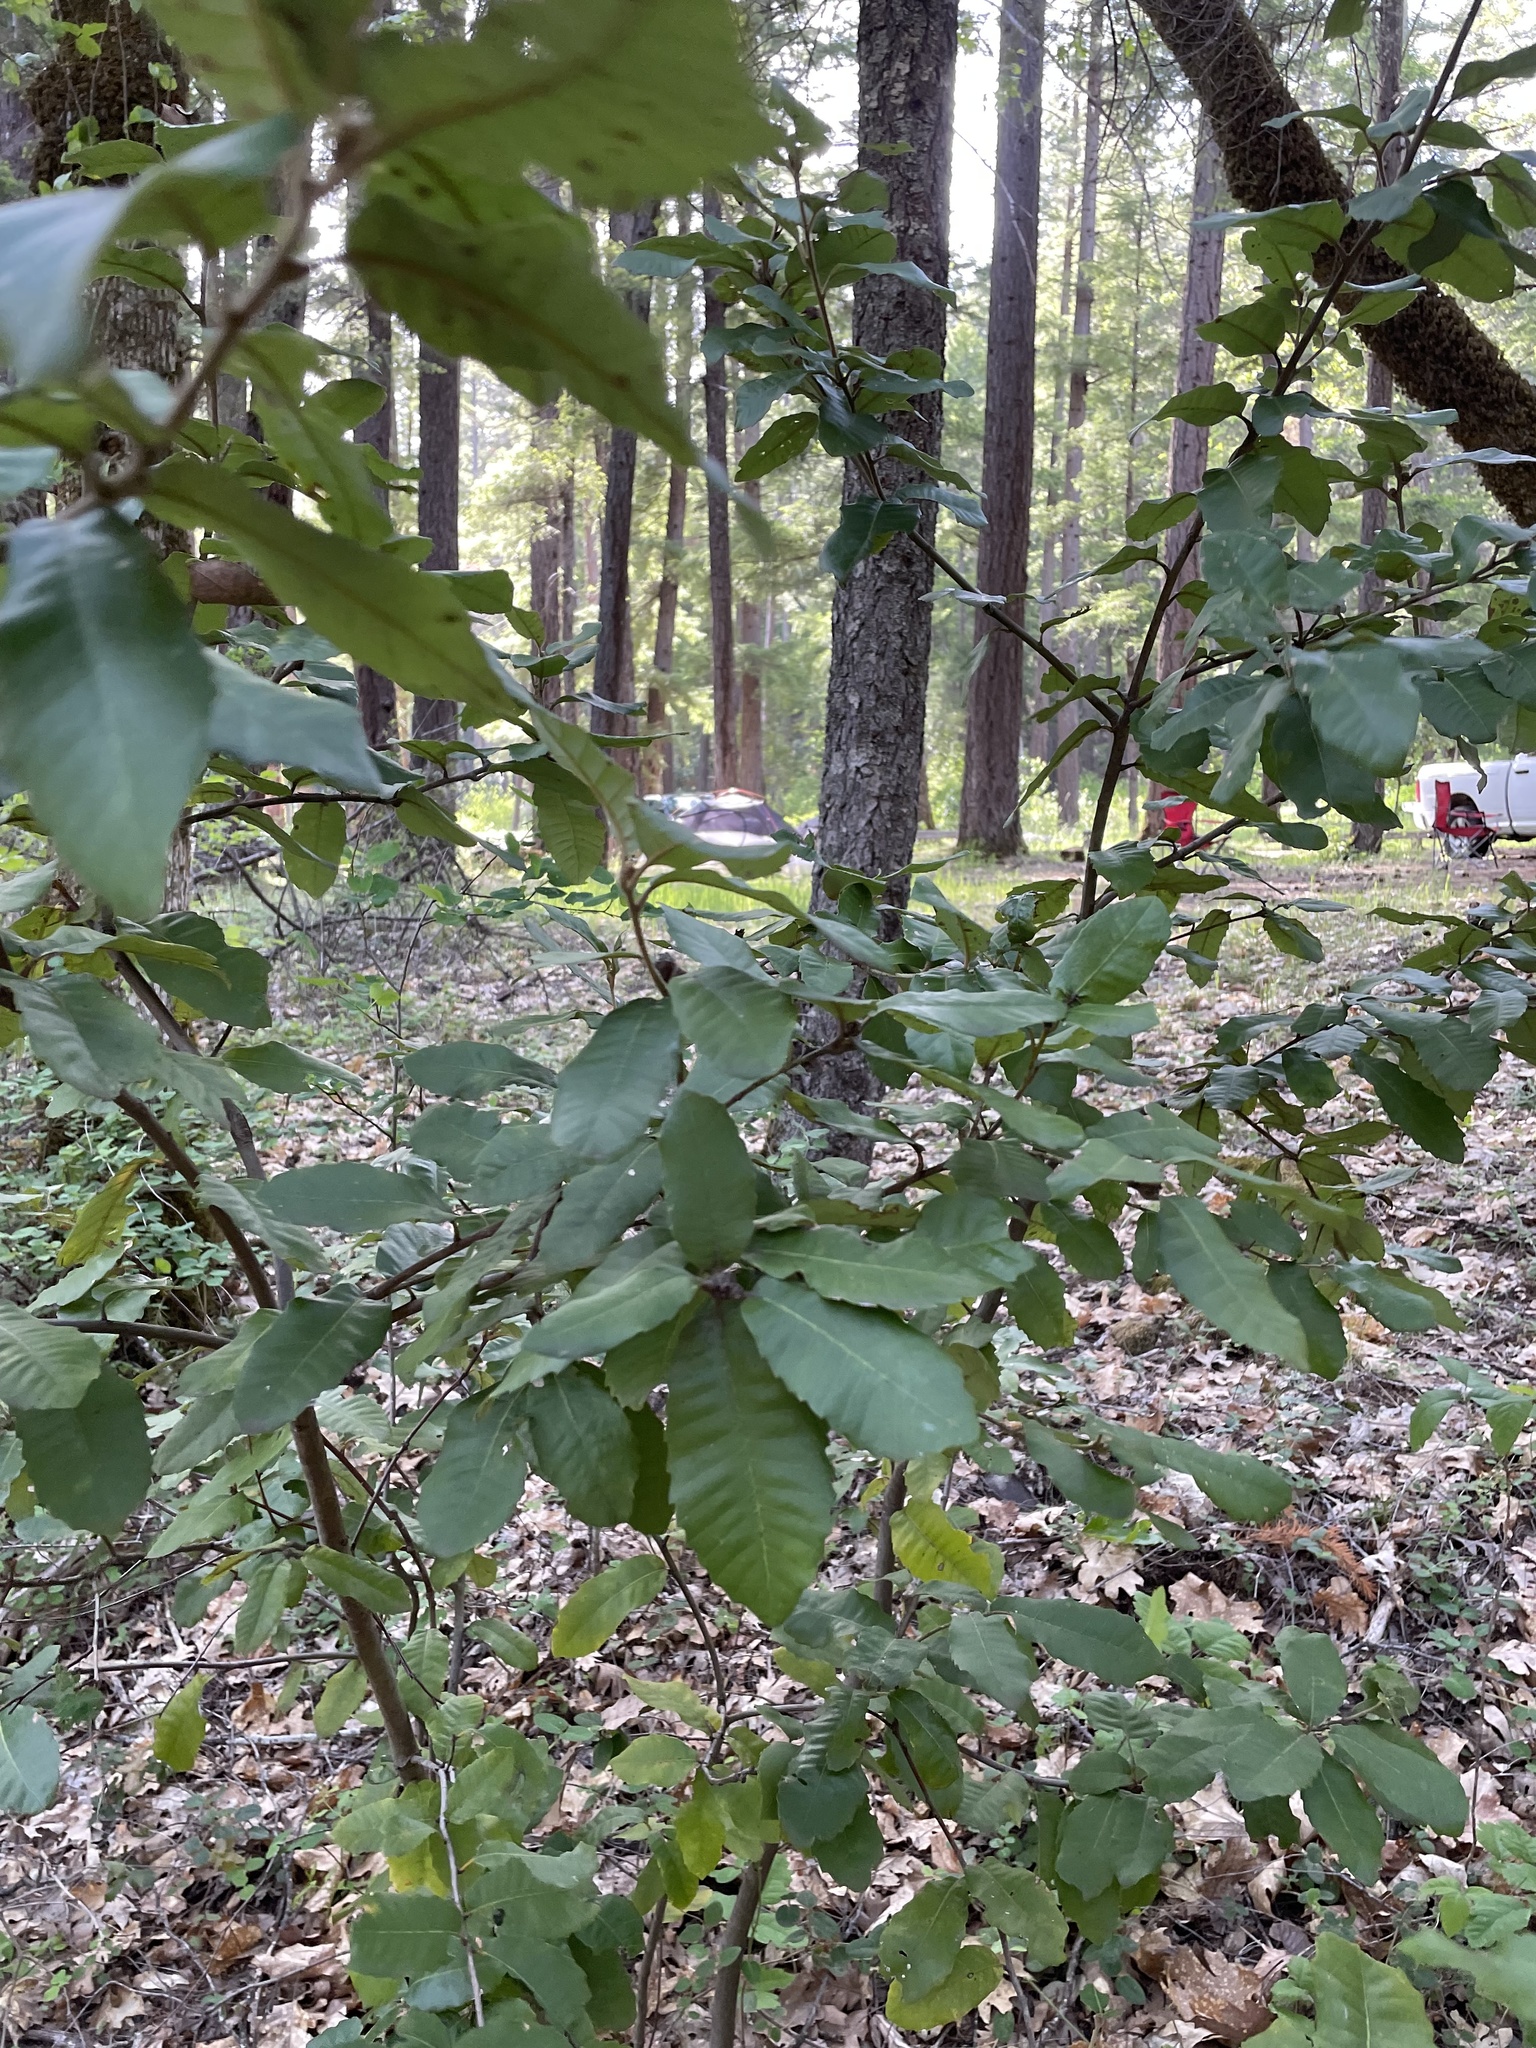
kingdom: Plantae
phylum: Tracheophyta
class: Magnoliopsida
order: Fagales
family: Fagaceae
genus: Notholithocarpus
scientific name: Notholithocarpus densiflorus
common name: Tan bark oak
